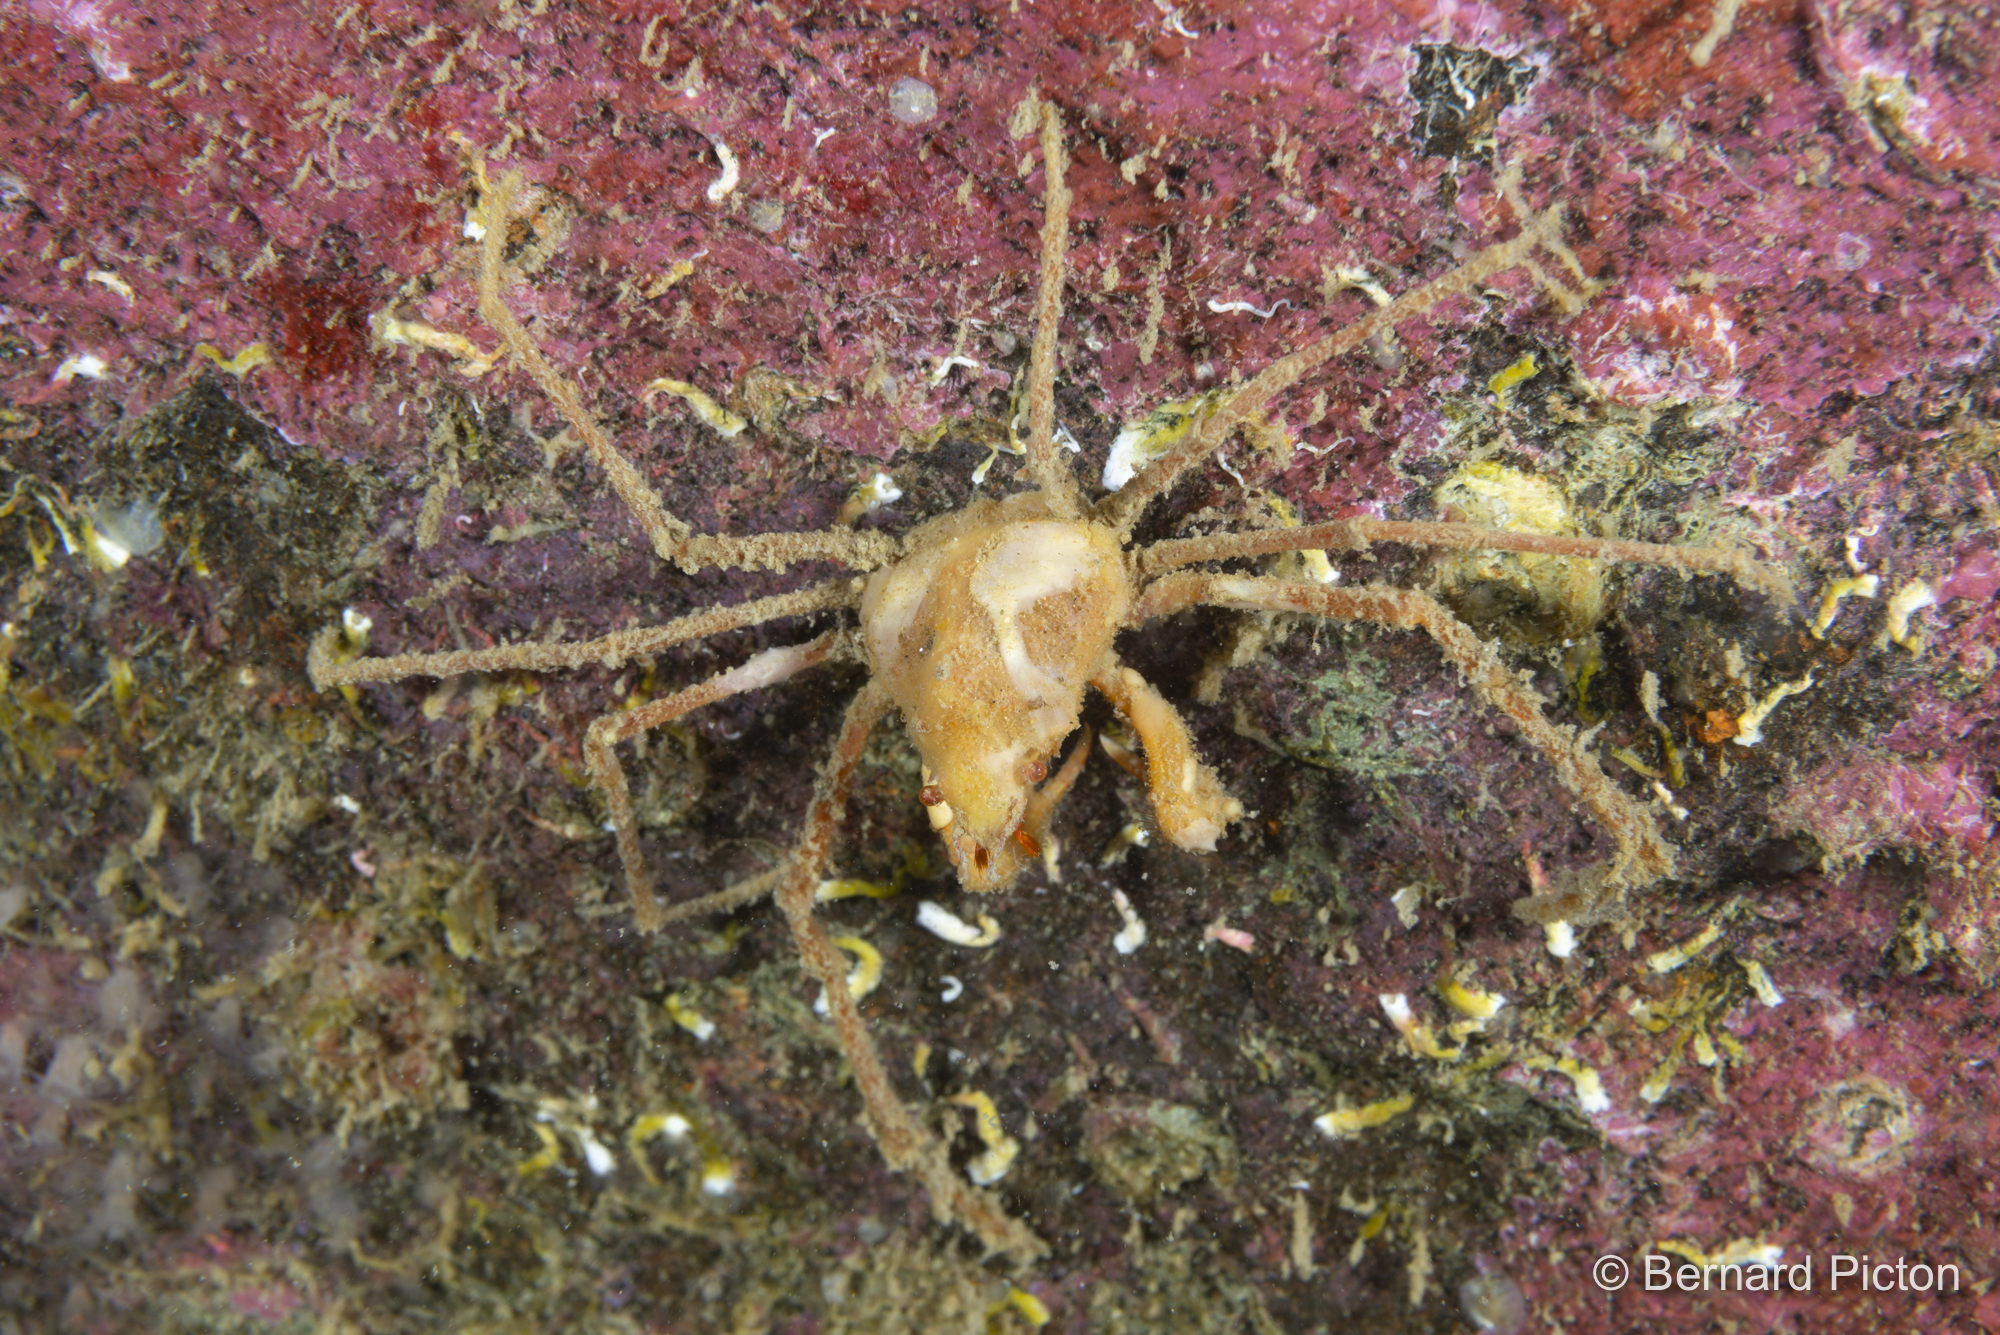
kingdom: Animalia
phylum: Arthropoda
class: Malacostraca
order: Decapoda
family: Inachidae
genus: Inachus
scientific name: Inachus phalangium
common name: Leach's spider crab
